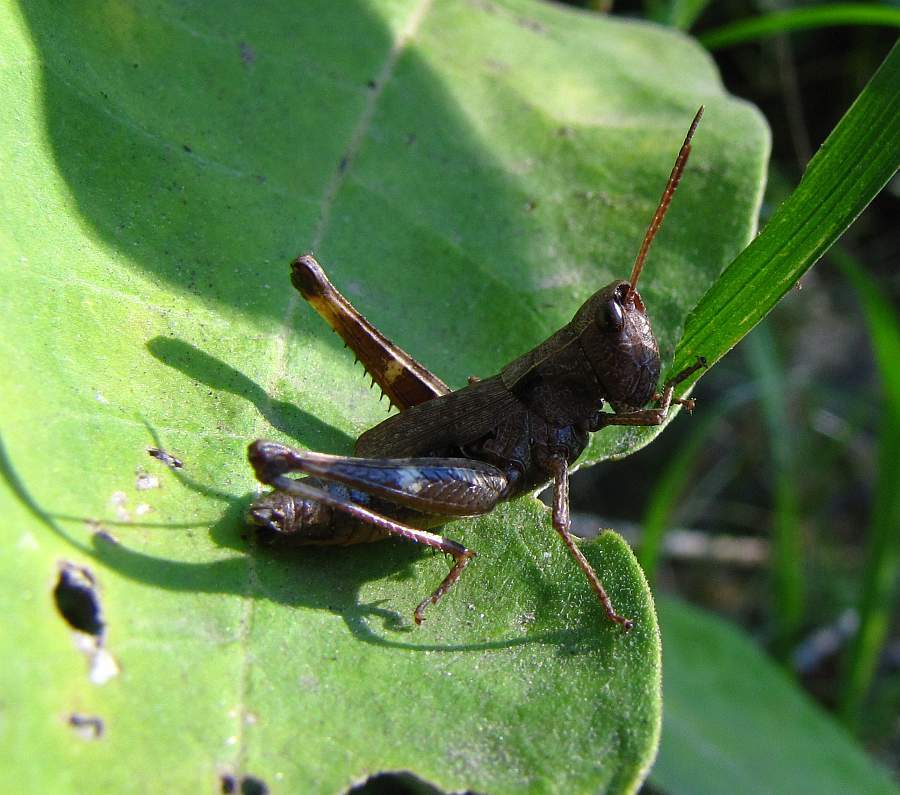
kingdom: Animalia
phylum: Arthropoda
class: Insecta
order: Orthoptera
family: Acrididae
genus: Chloealtis
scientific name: Chloealtis conspersa
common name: Sprinkled broad-winged grasshopper
